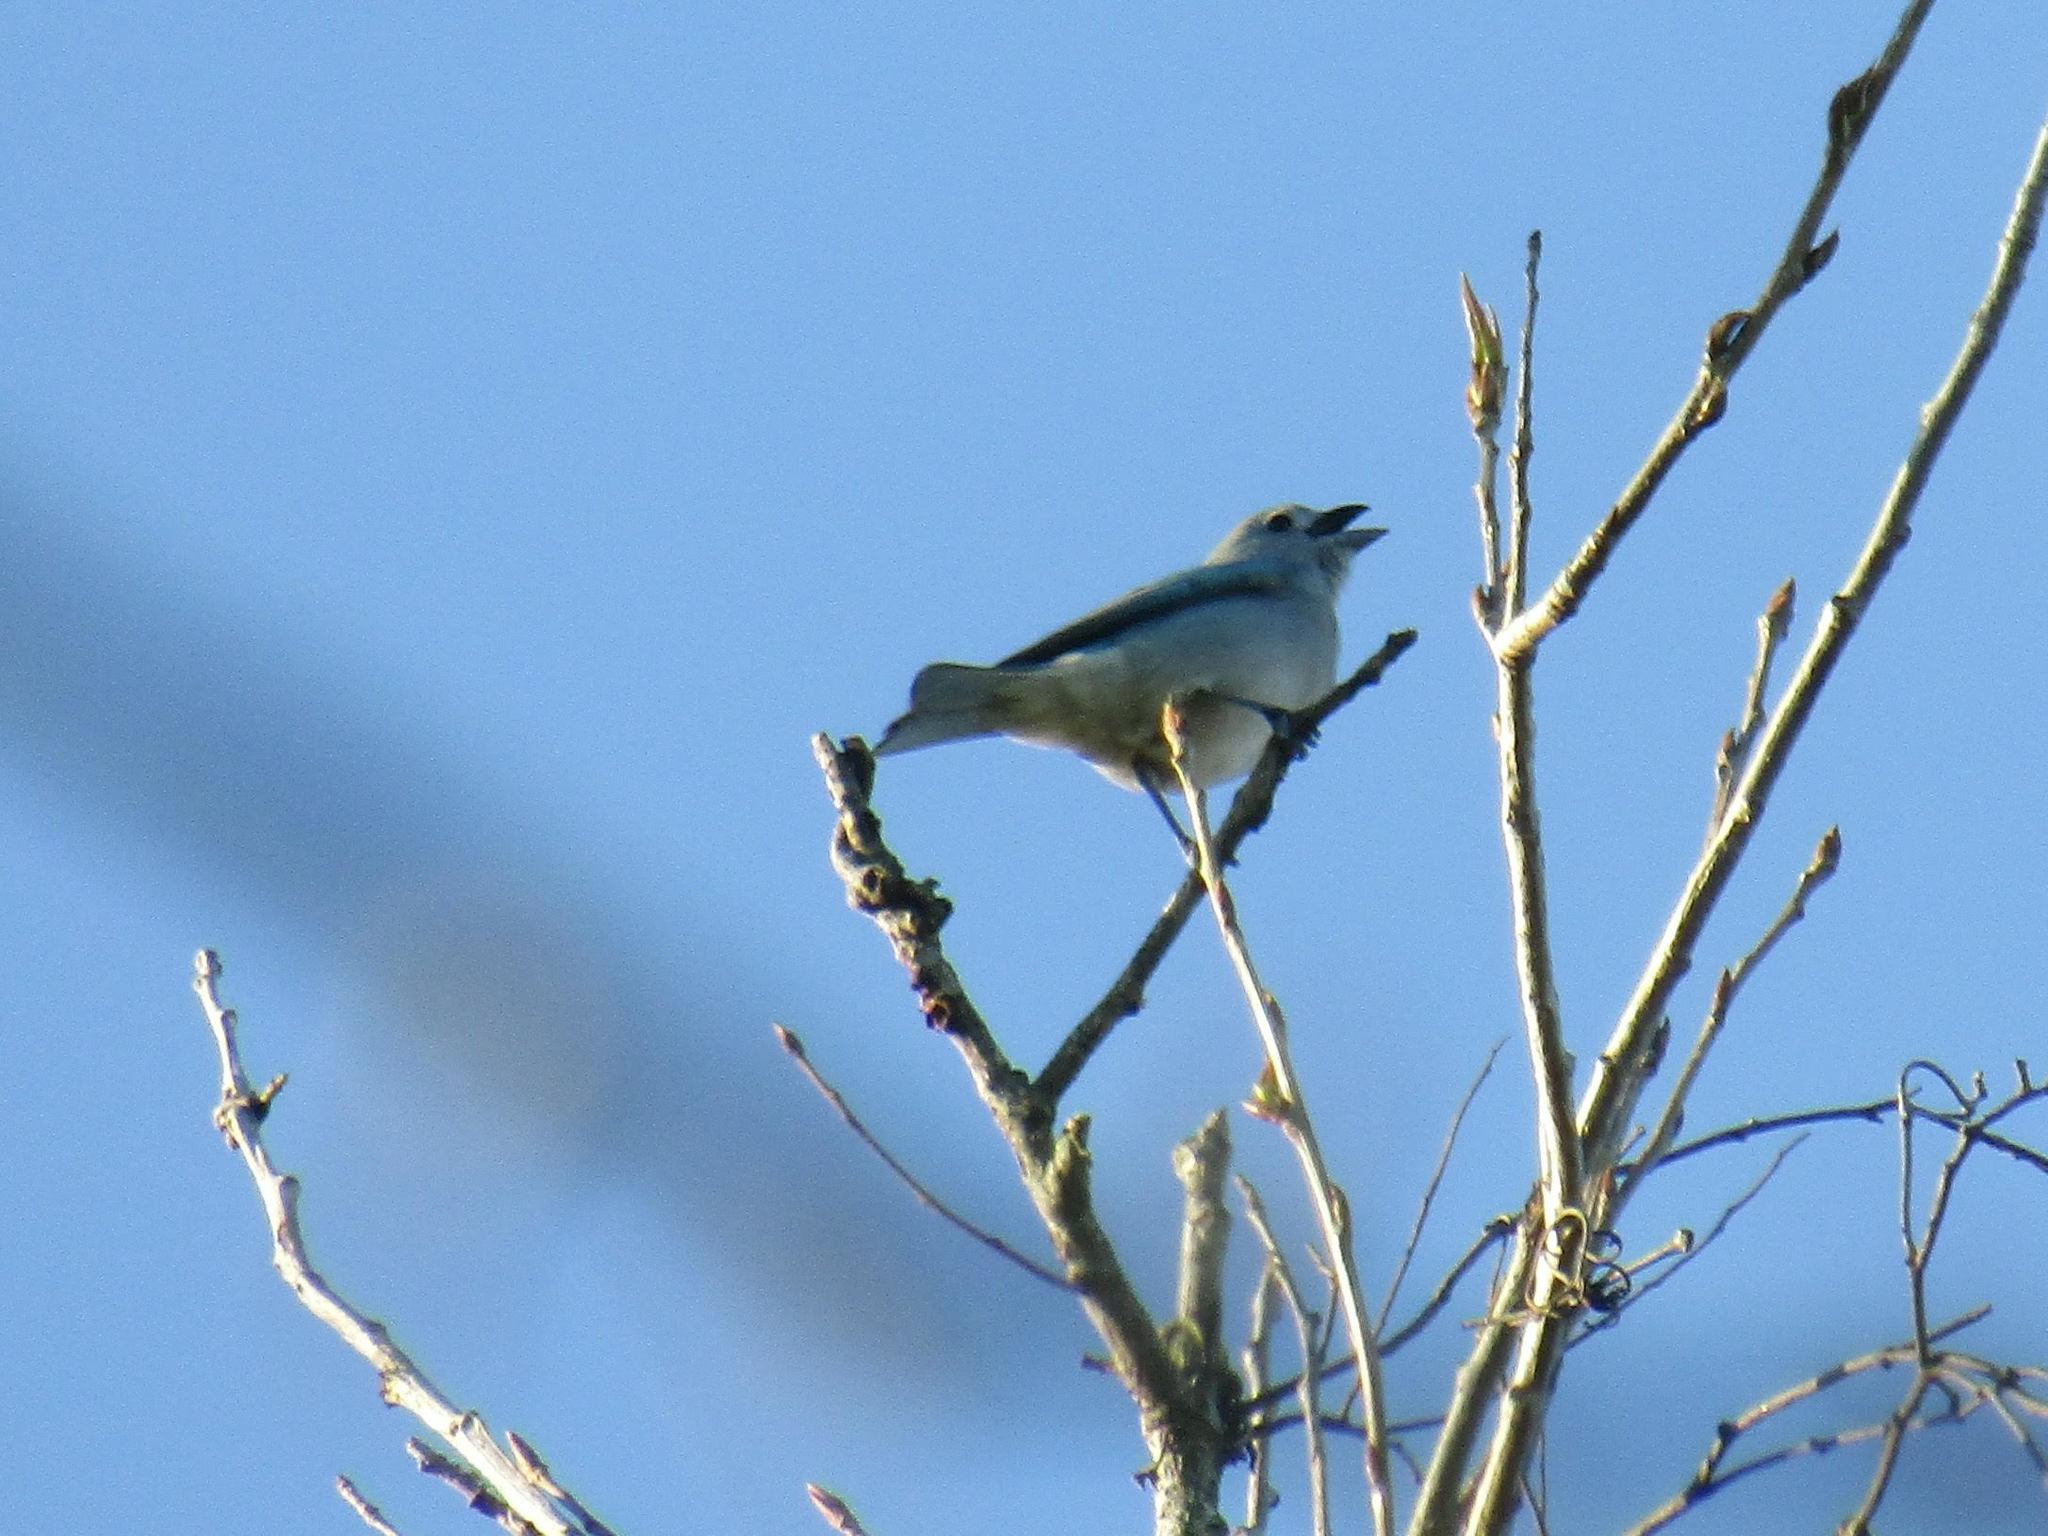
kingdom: Animalia
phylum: Chordata
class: Aves
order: Passeriformes
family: Thraupidae
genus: Thraupis
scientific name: Thraupis sayaca
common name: Sayaca tanager
